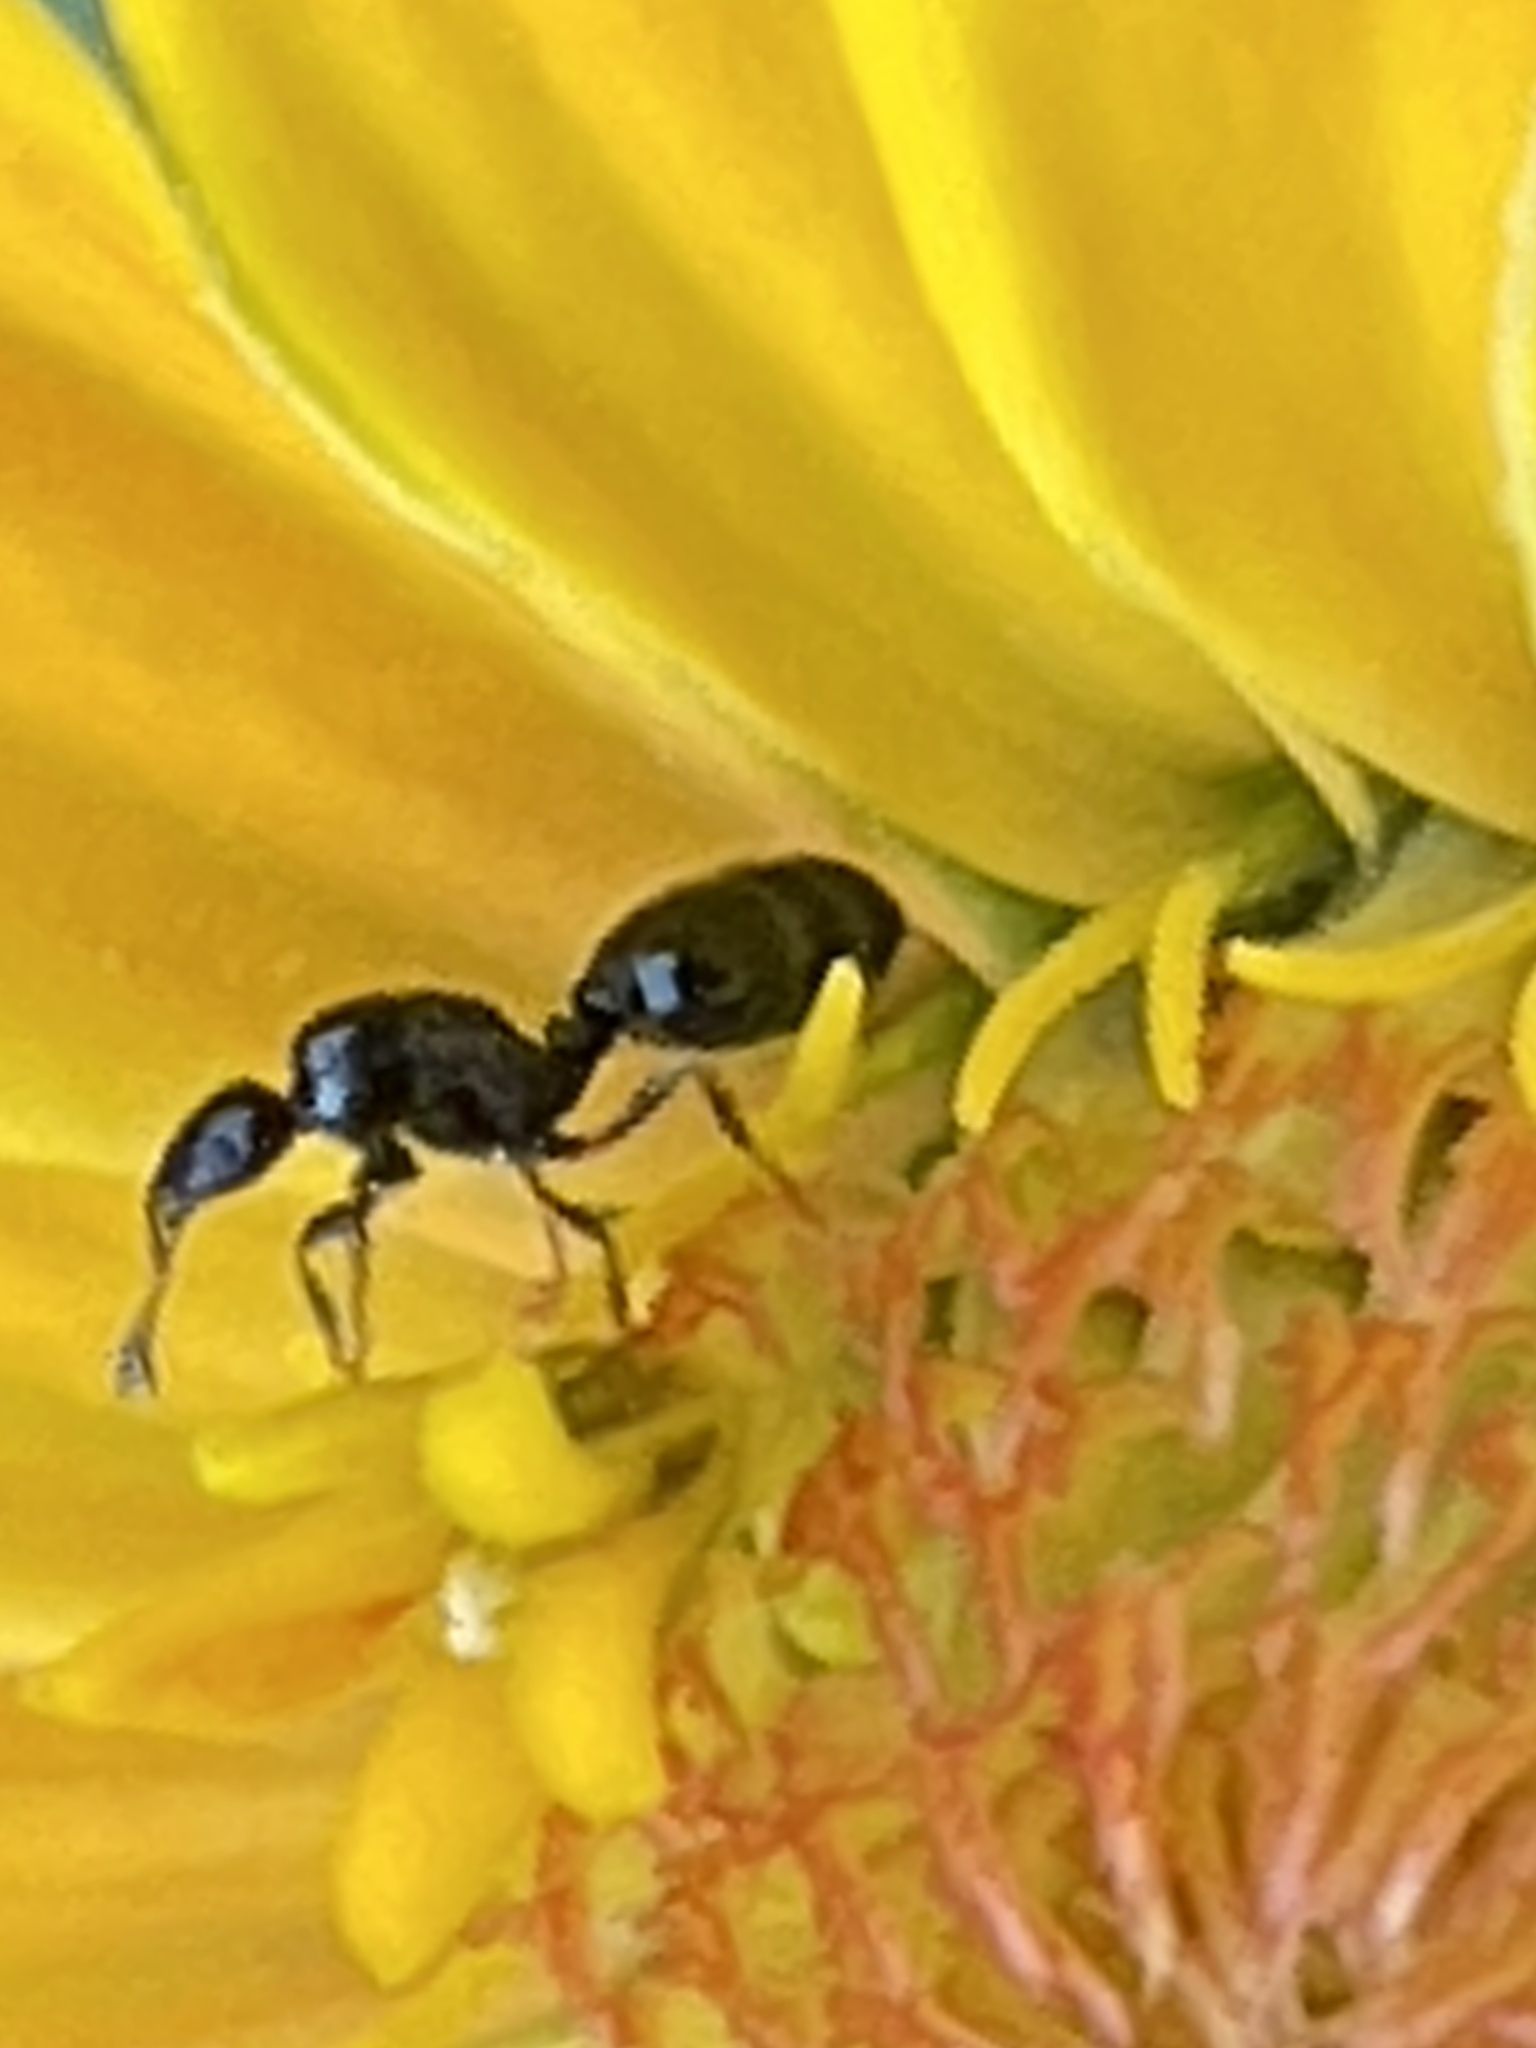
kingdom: Animalia
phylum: Arthropoda
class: Insecta
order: Hymenoptera
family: Formicidae
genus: Monomorium
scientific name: Monomorium minimum
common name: Little black ant
